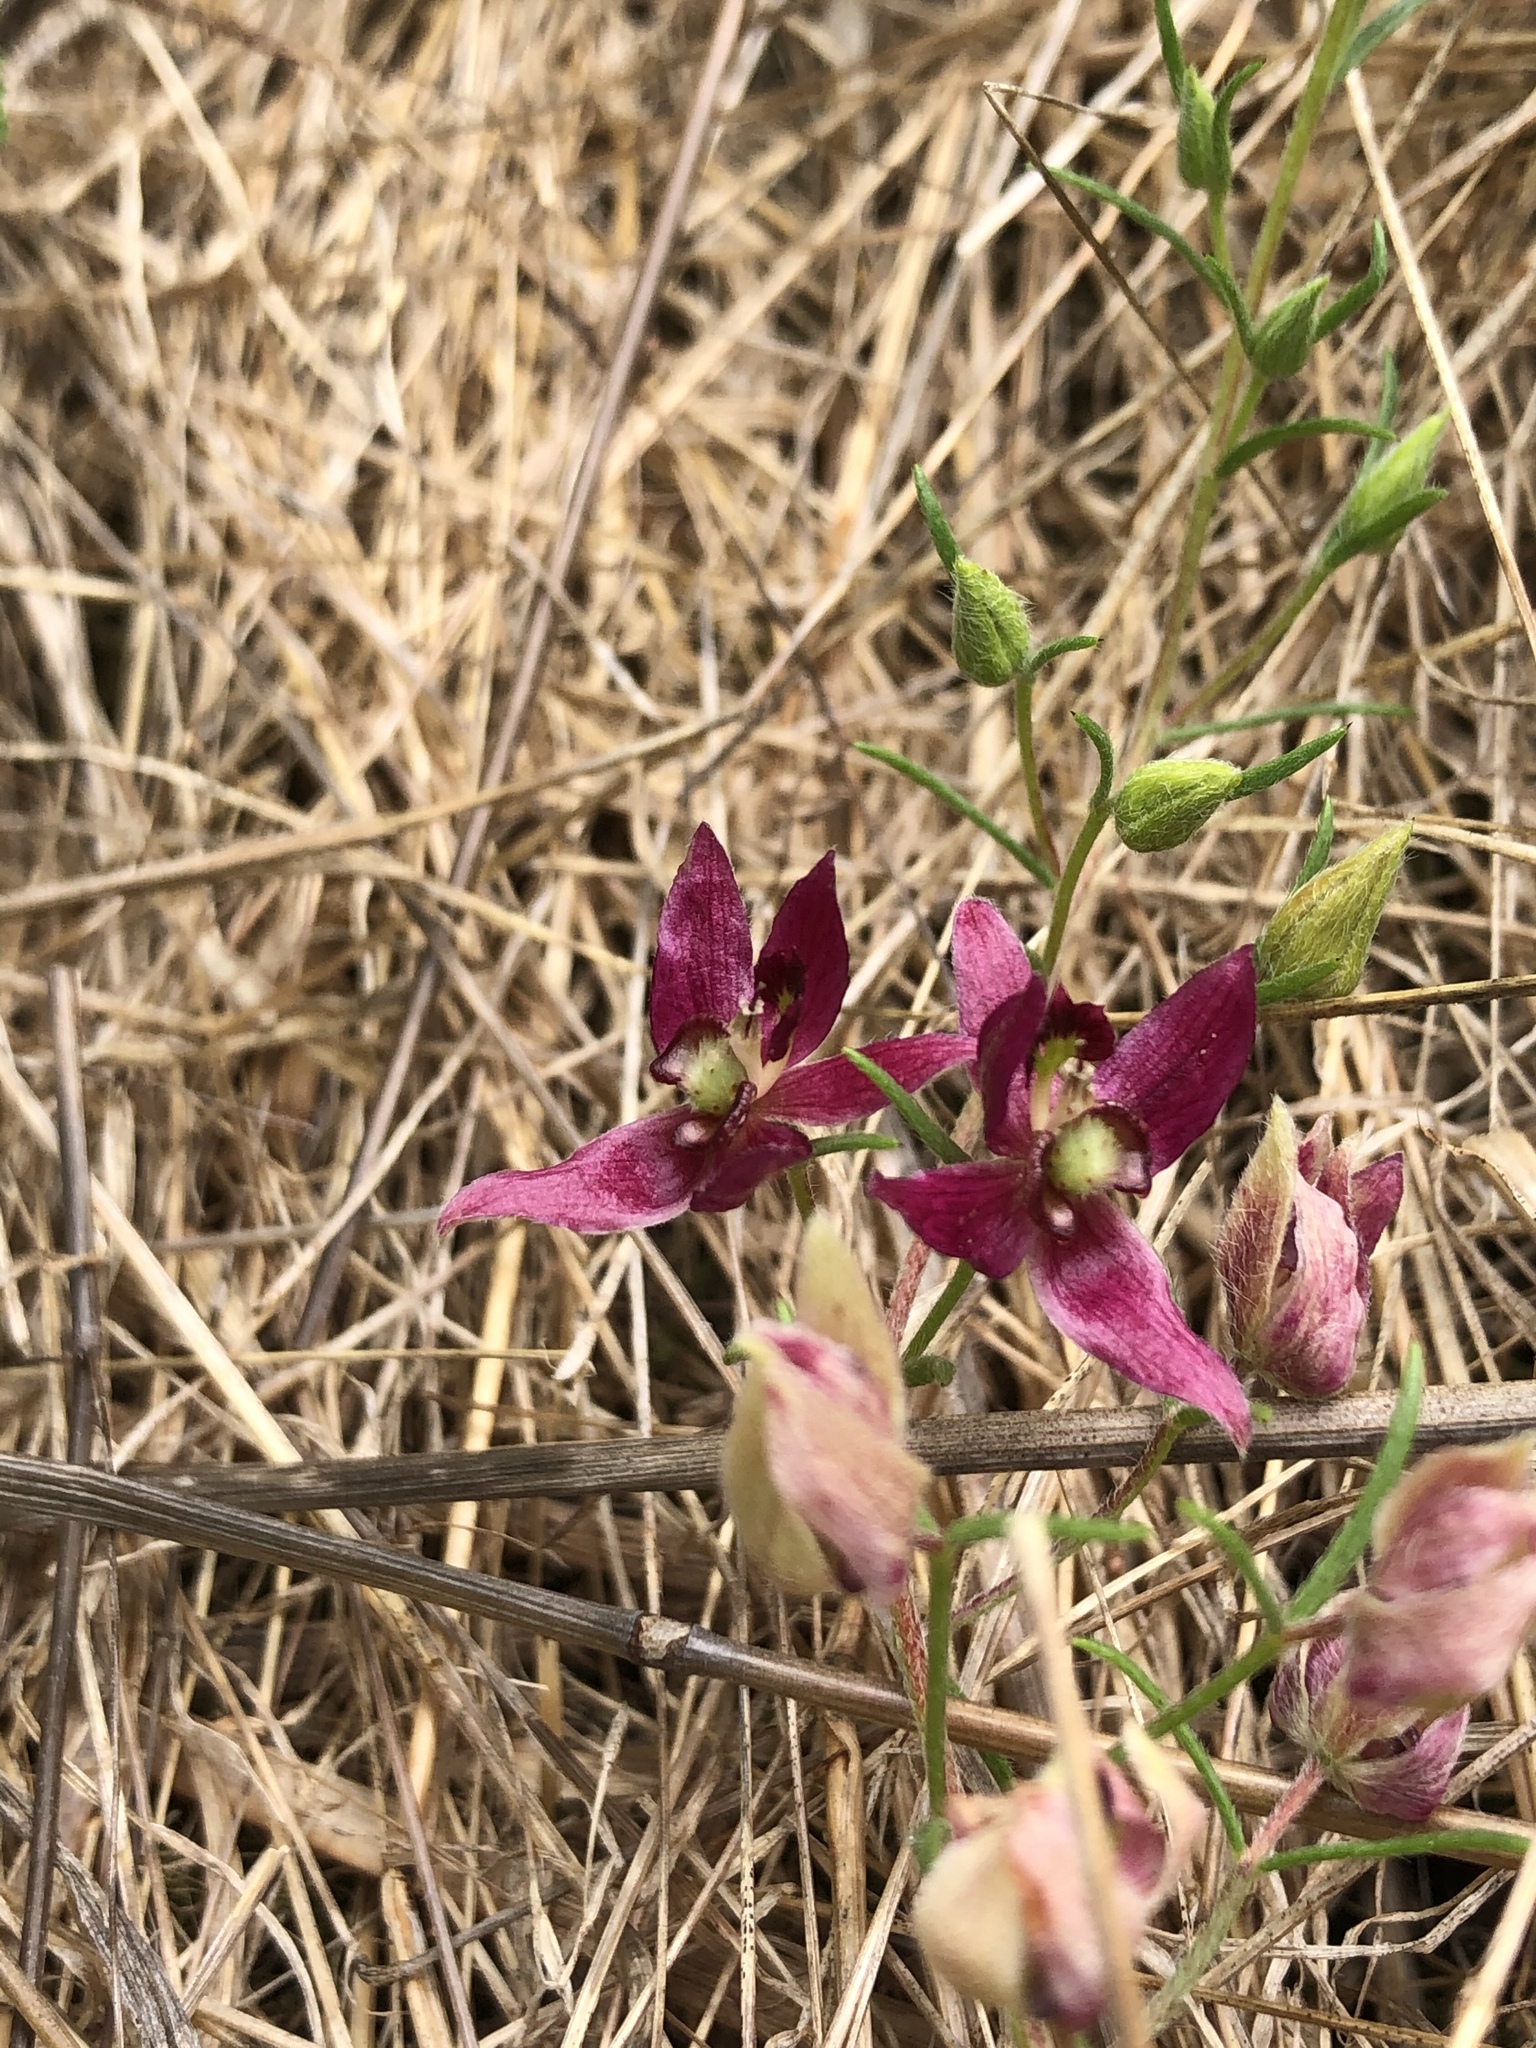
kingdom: Plantae
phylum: Tracheophyta
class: Magnoliopsida
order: Zygophyllales
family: Krameriaceae
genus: Krameria
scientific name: Krameria lanceolata
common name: Ratany
